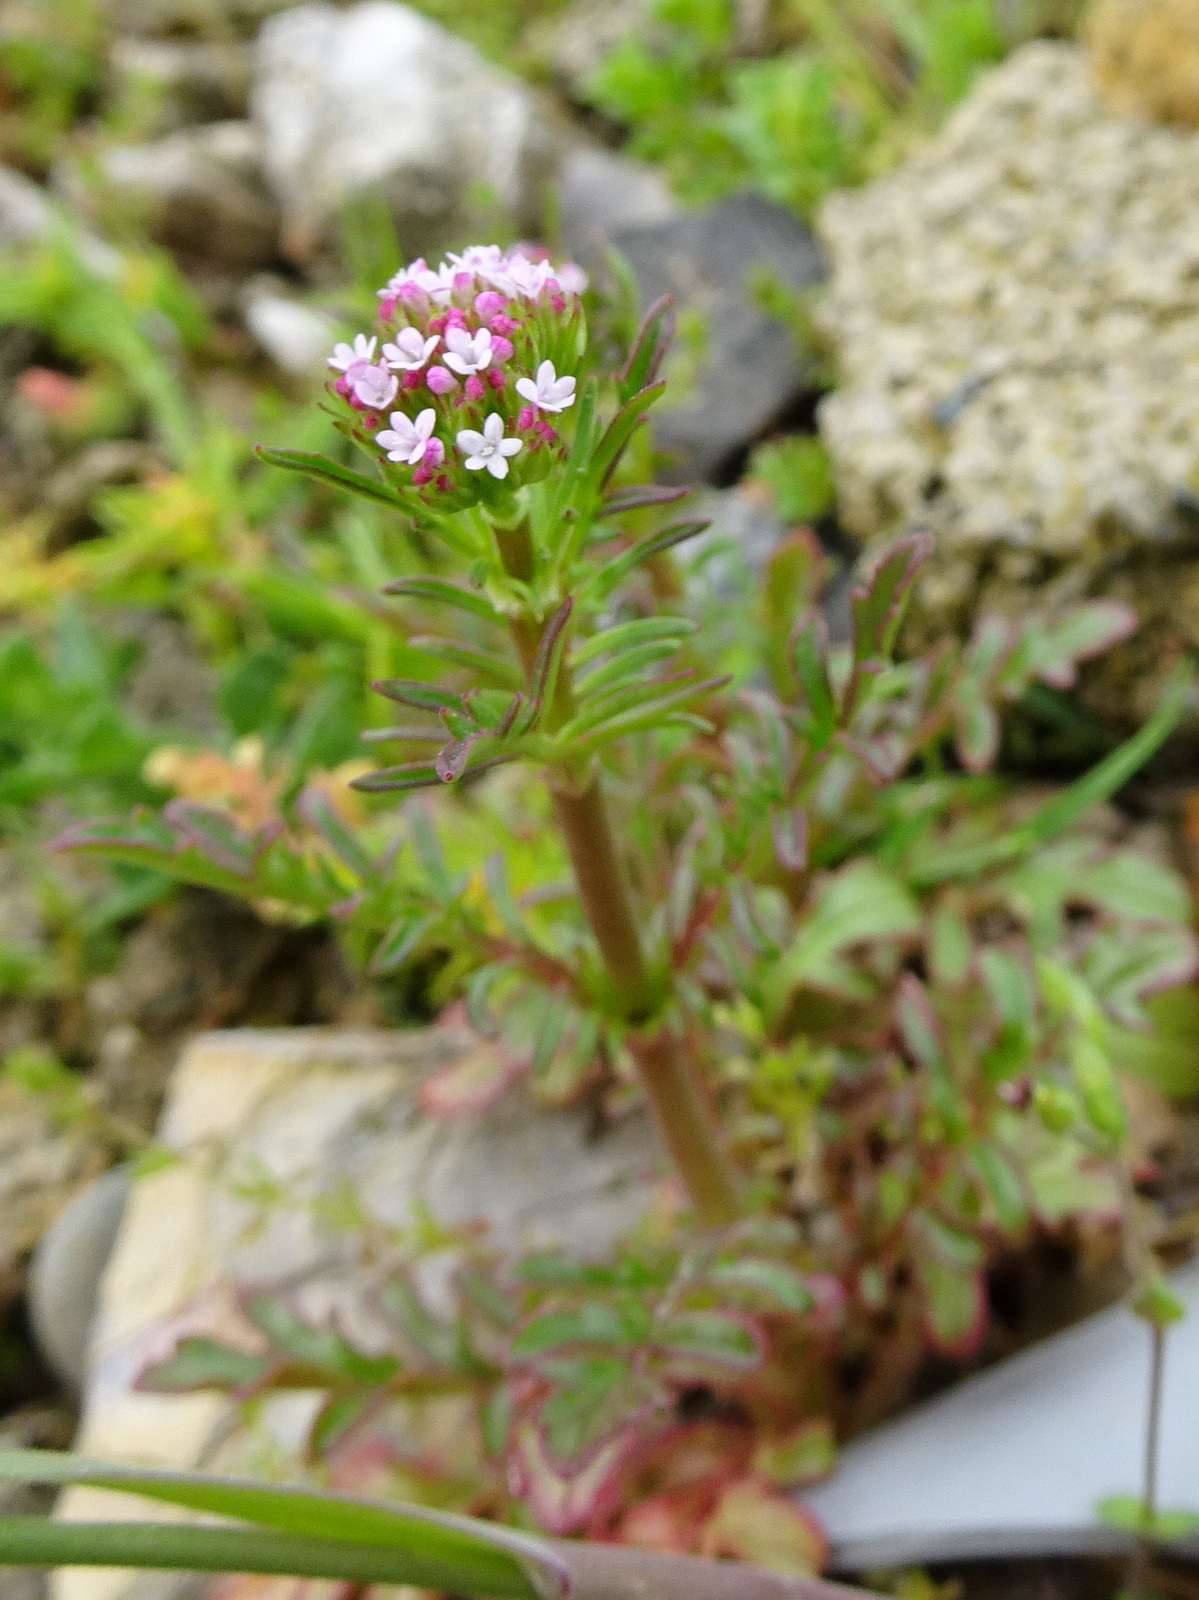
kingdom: Plantae
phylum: Tracheophyta
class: Magnoliopsida
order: Dipsacales
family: Caprifoliaceae
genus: Centranthus
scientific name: Centranthus calcitrapae
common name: Annual valerian
